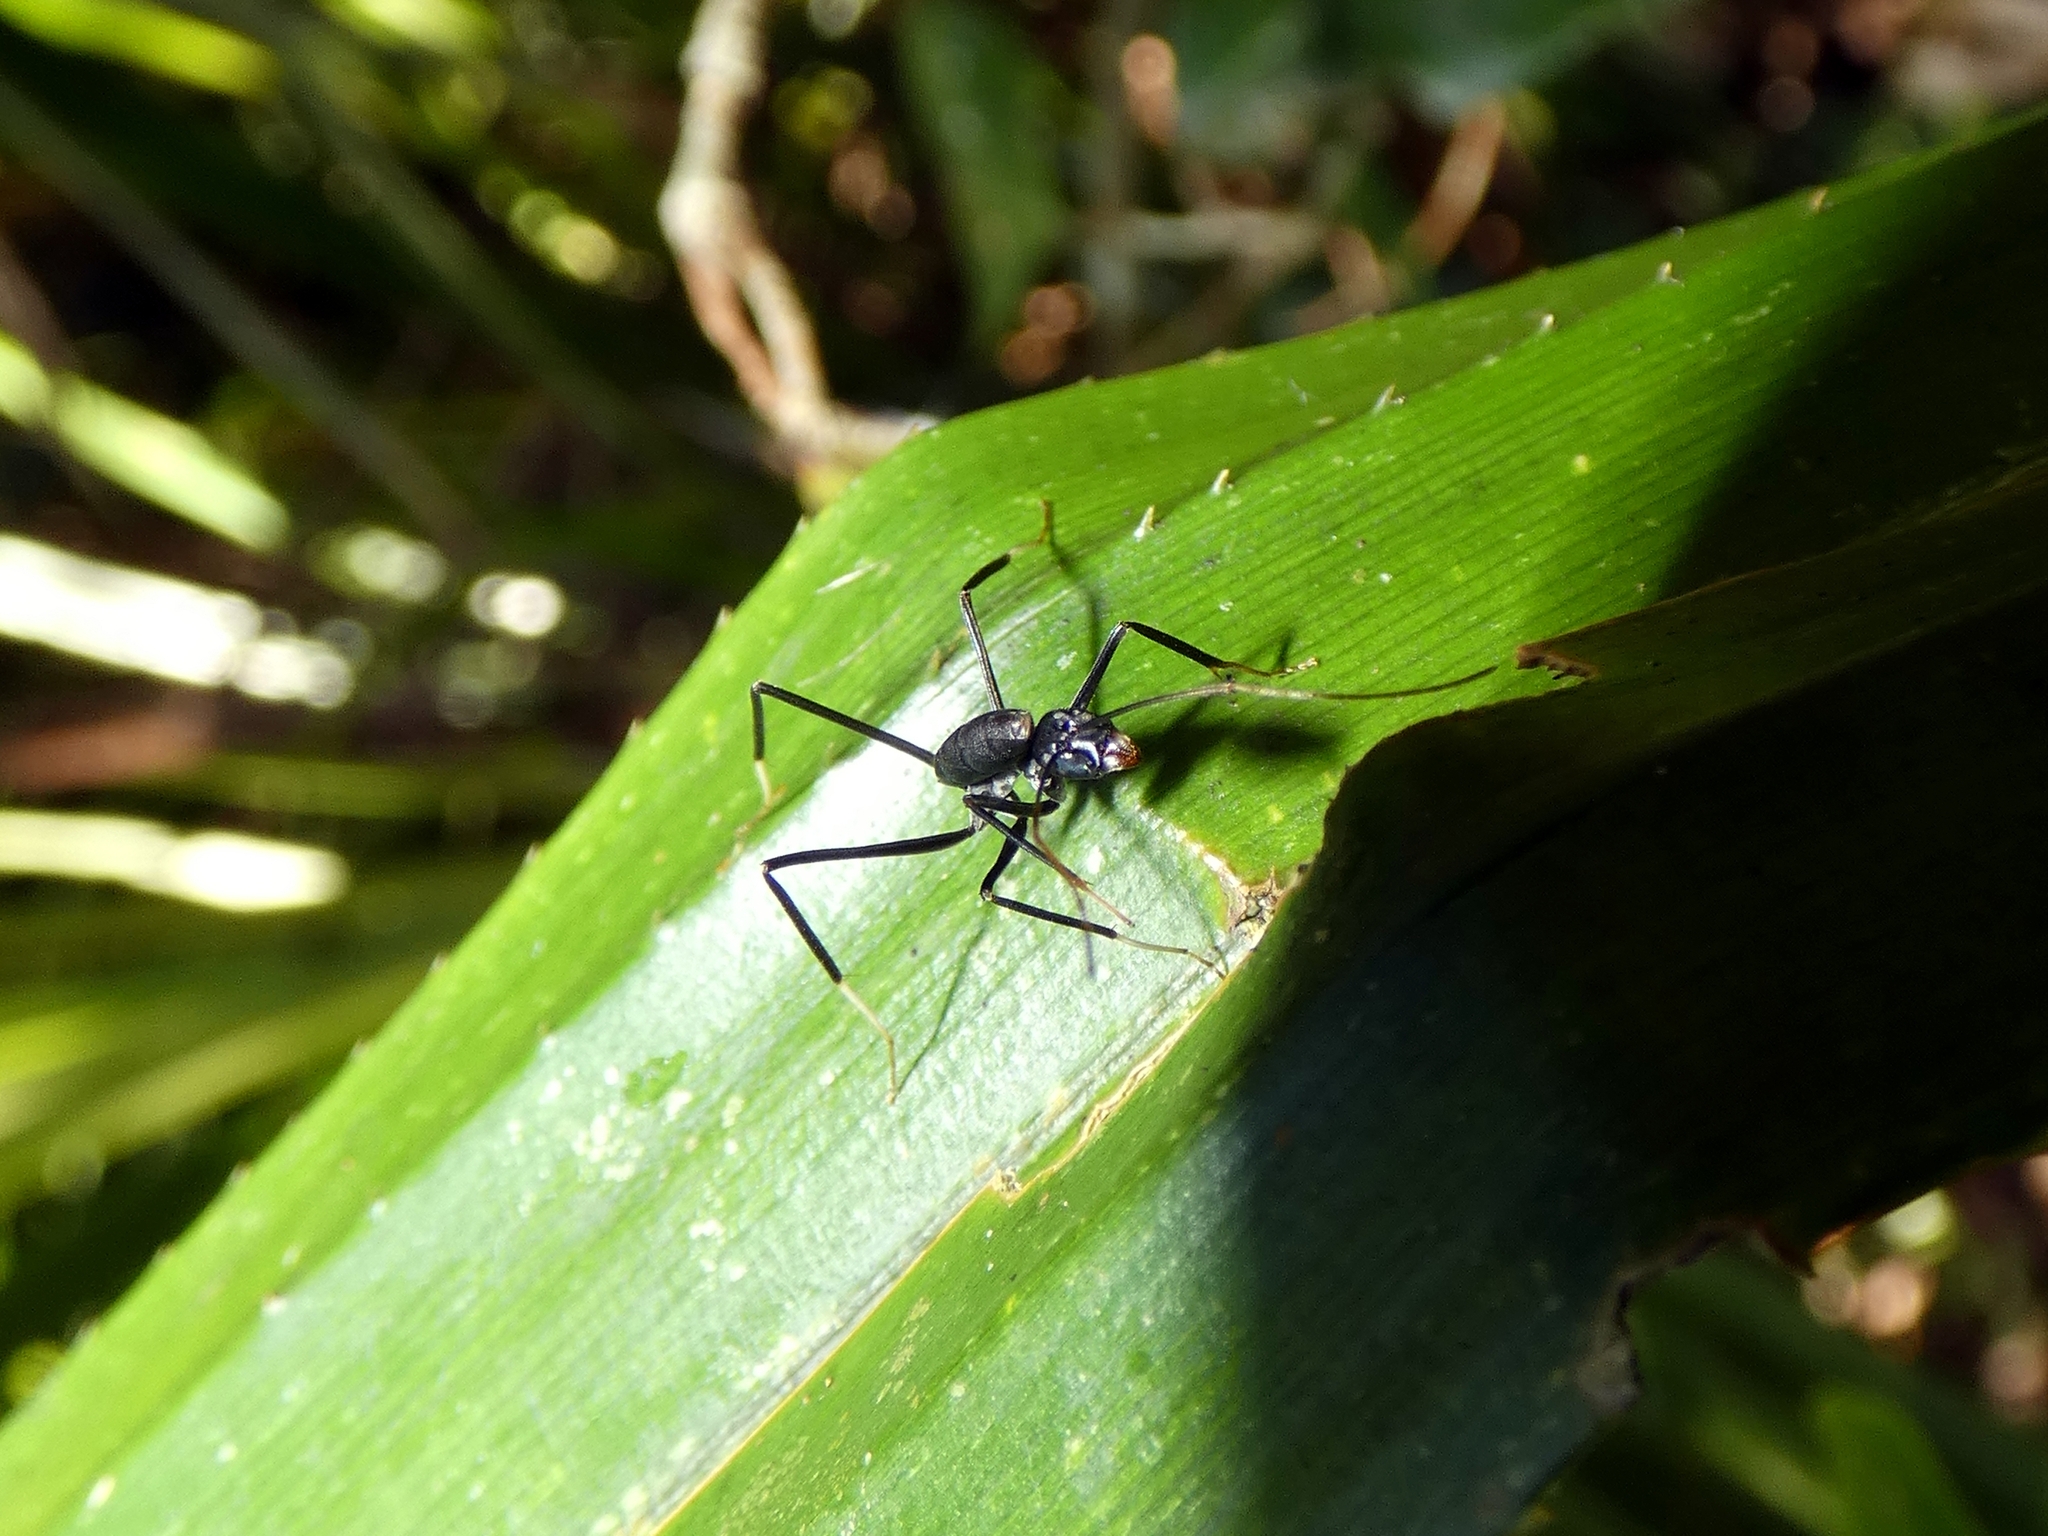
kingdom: Animalia
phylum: Arthropoda
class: Insecta
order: Hymenoptera
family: Formicidae
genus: Leptomyrmex
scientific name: Leptomyrmex unicolor
